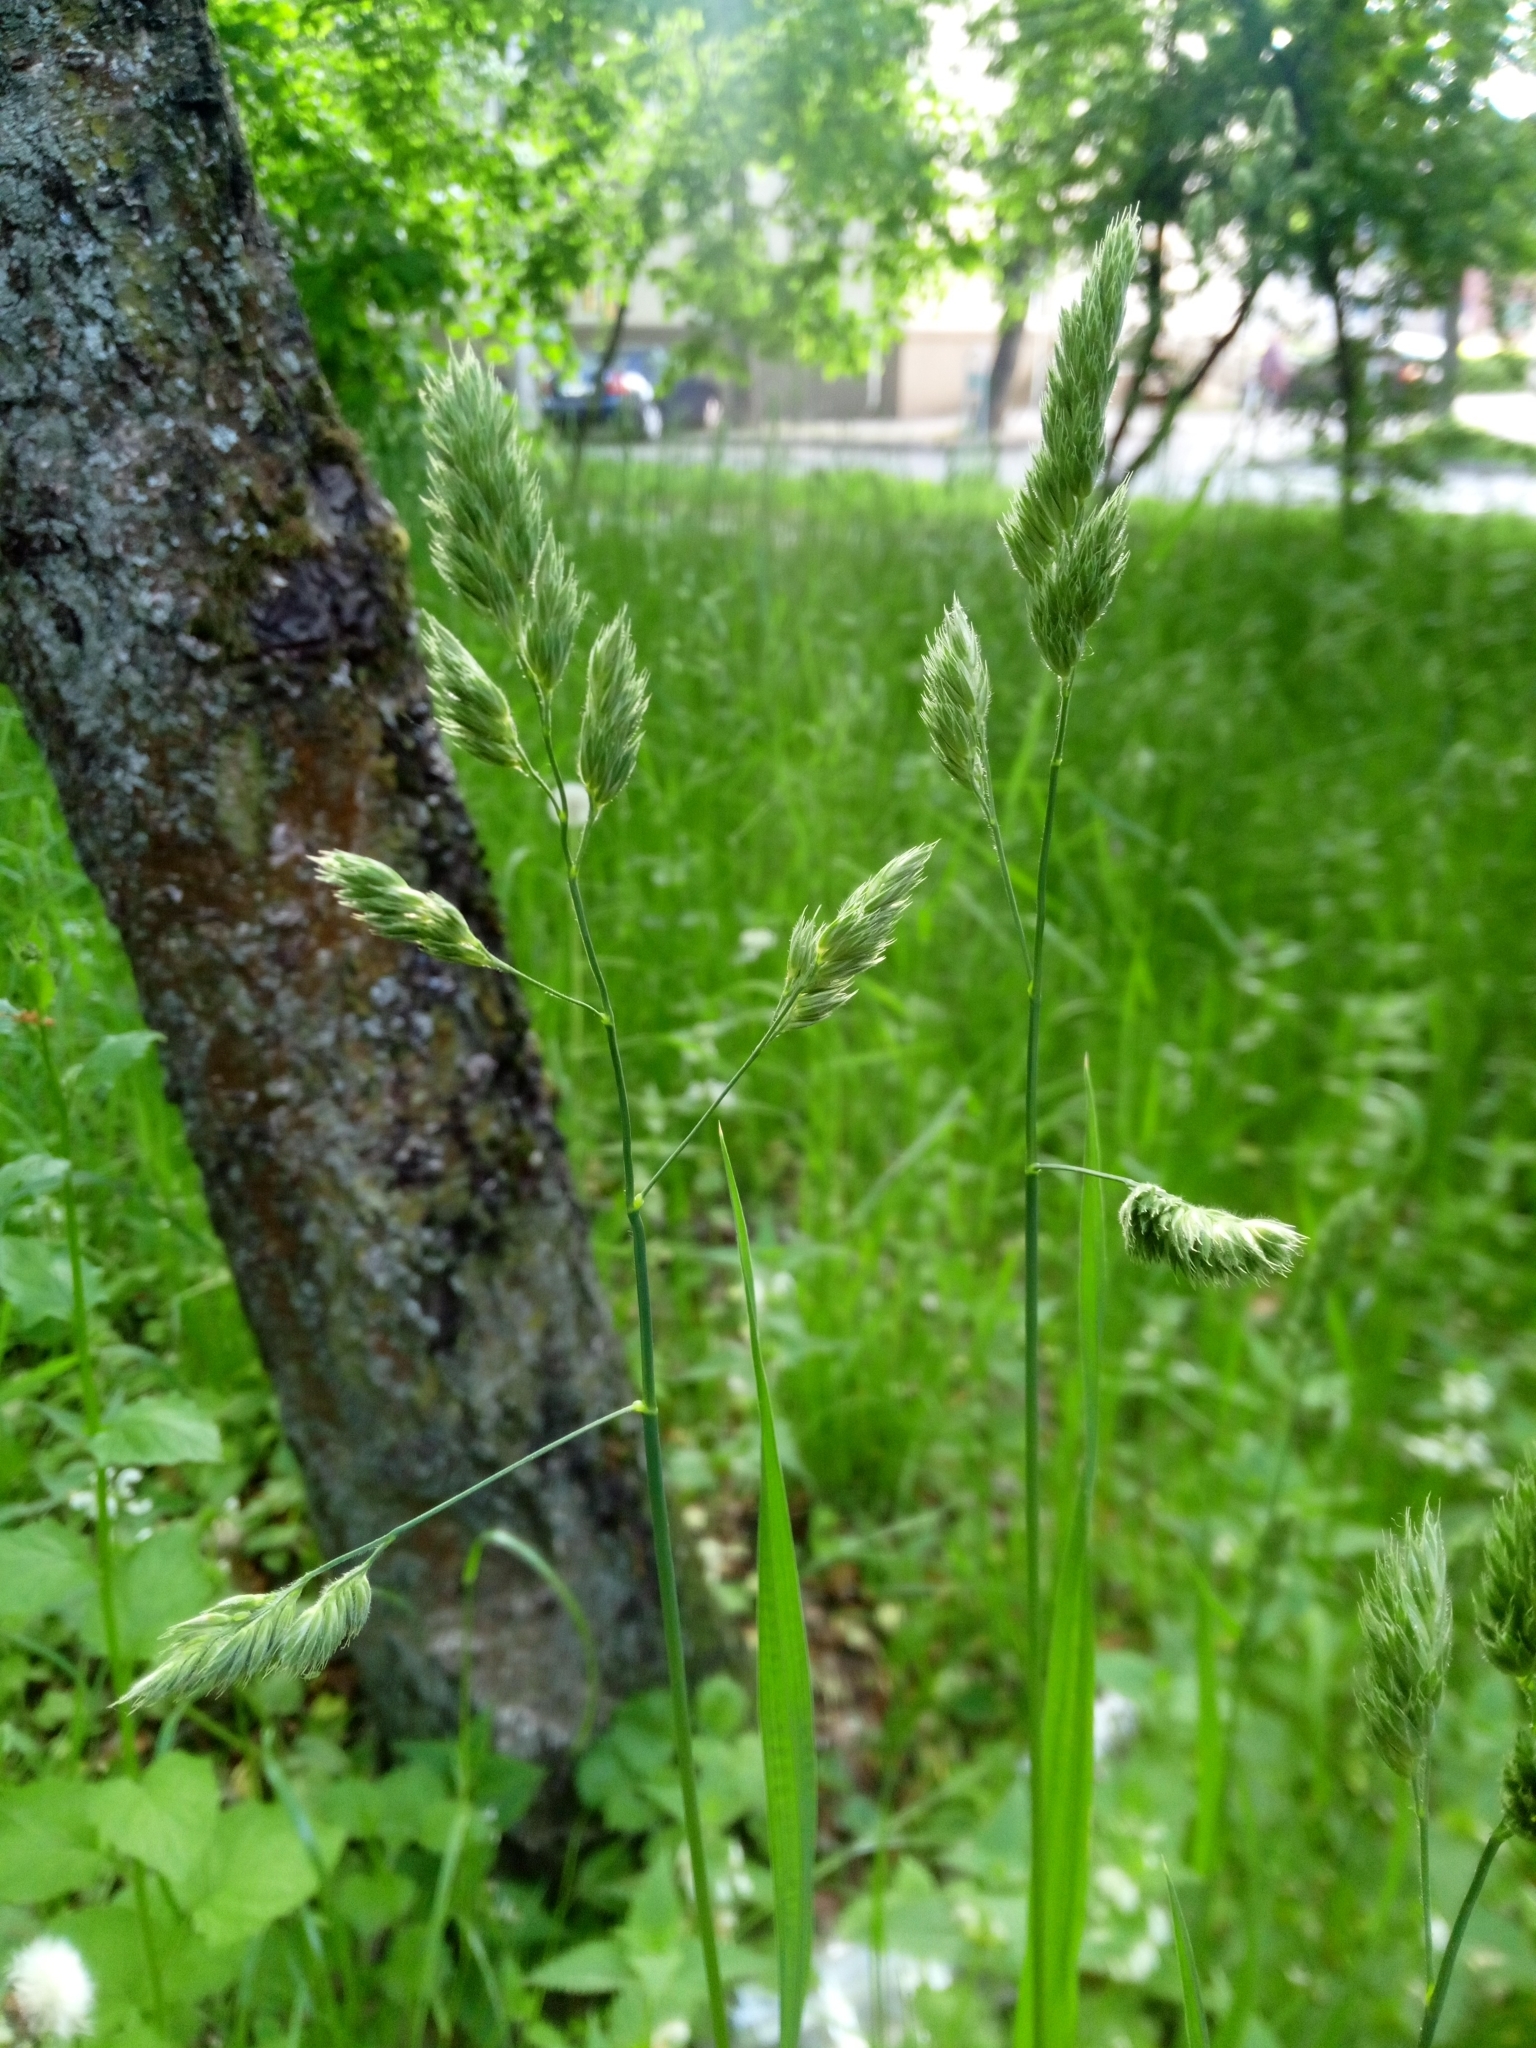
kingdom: Plantae
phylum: Tracheophyta
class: Liliopsida
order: Poales
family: Poaceae
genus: Dactylis
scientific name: Dactylis glomerata
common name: Orchardgrass
